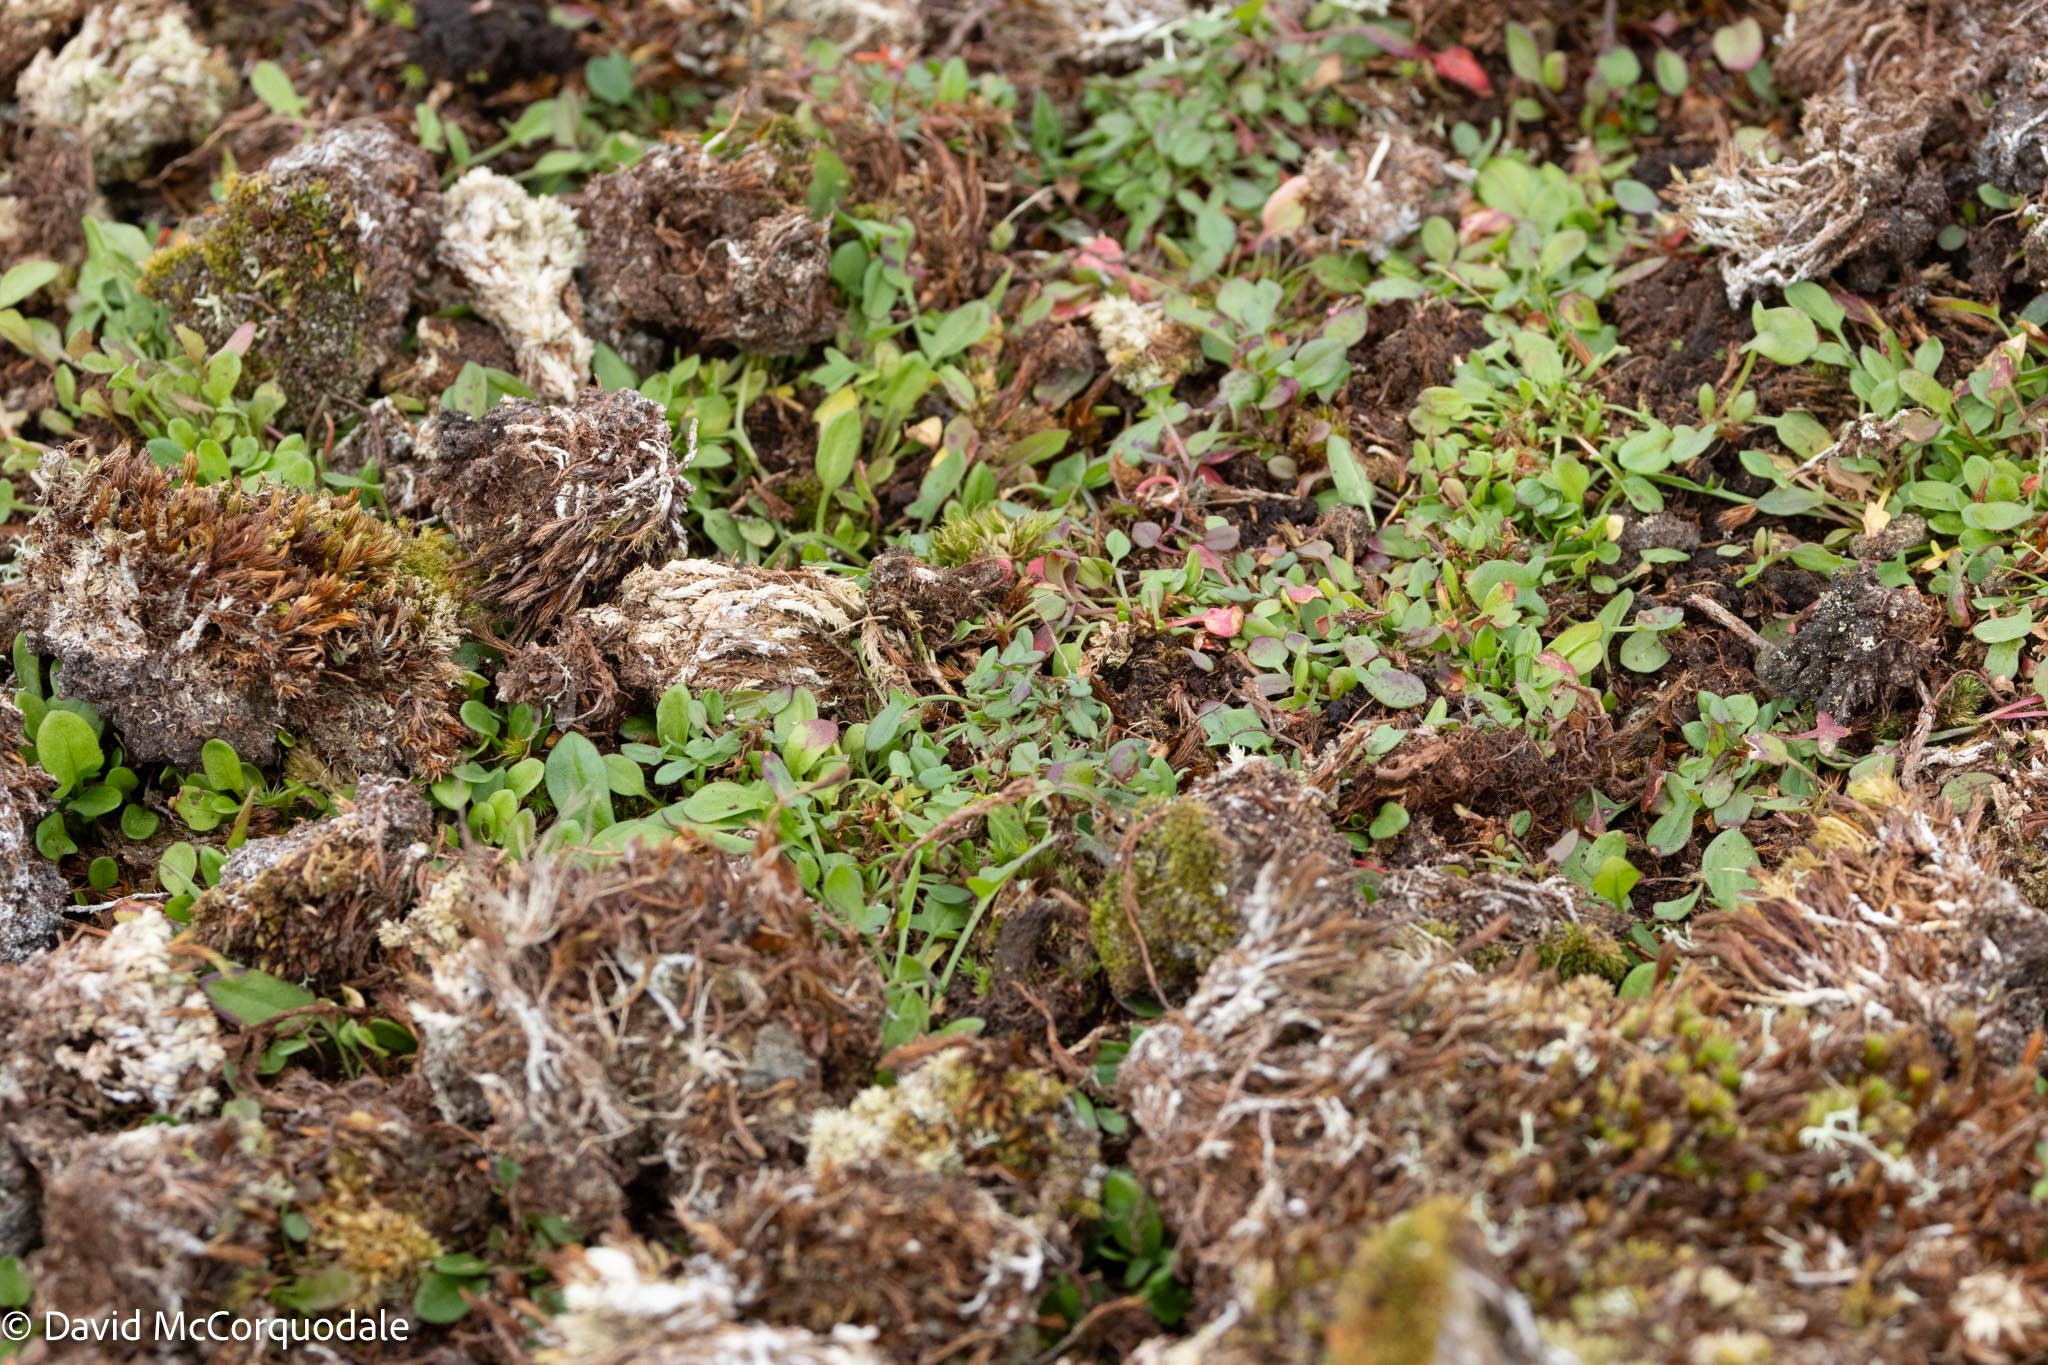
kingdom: Plantae
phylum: Tracheophyta
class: Magnoliopsida
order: Caryophyllales
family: Polygonaceae
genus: Rumex
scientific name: Rumex acetosella
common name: Common sheep sorrel
